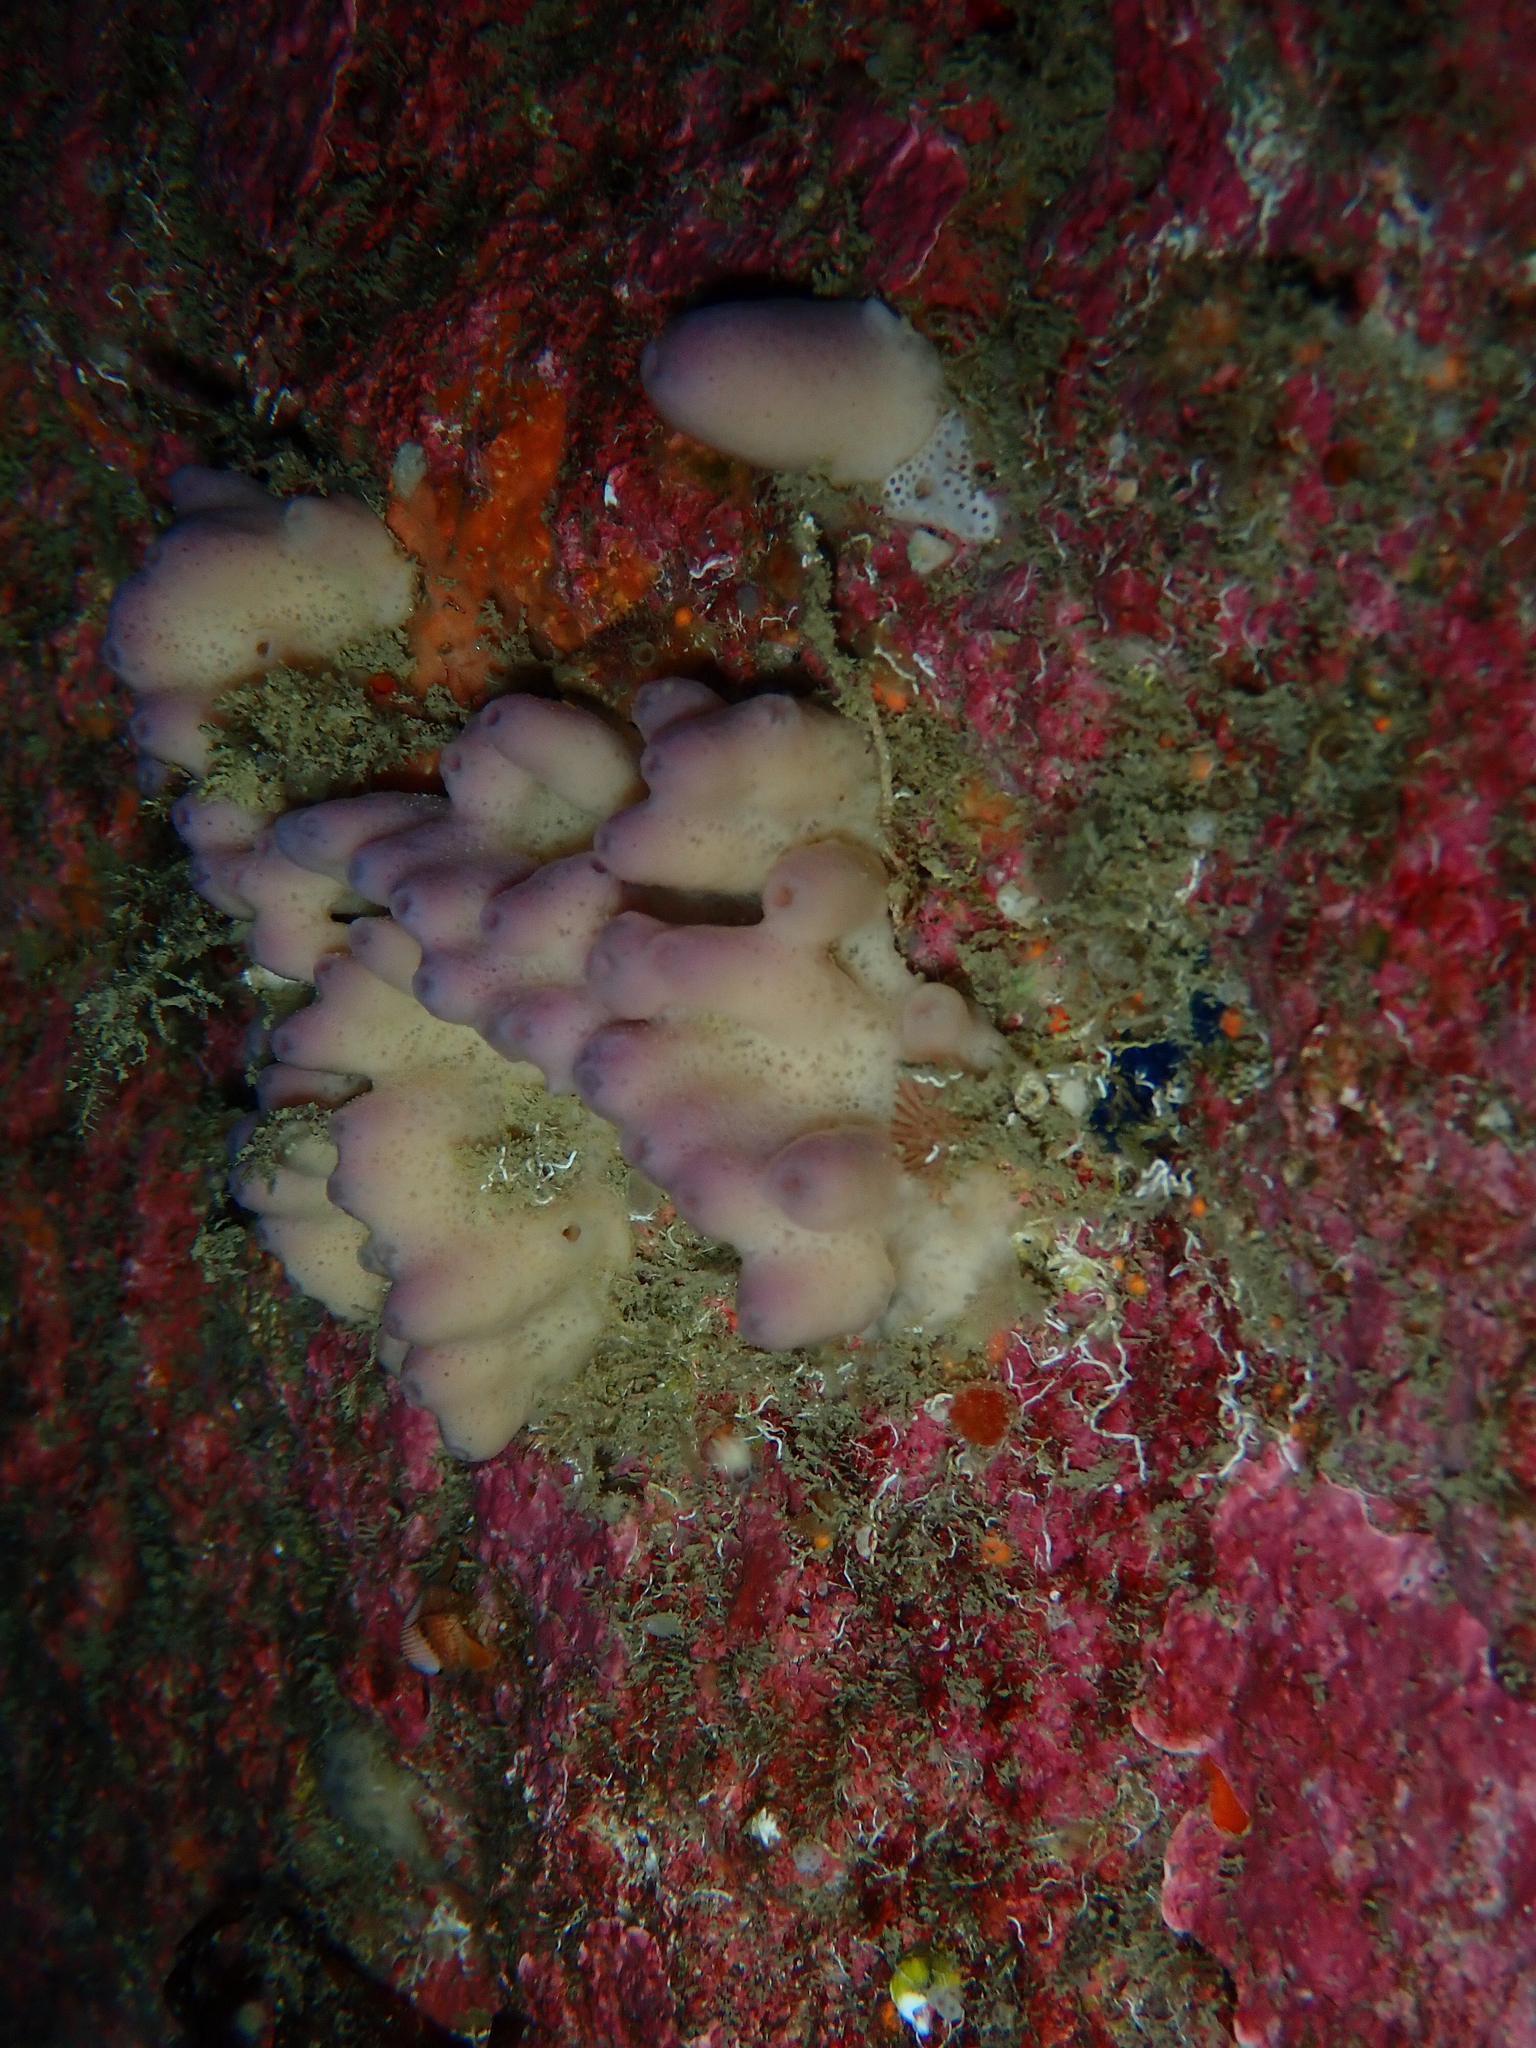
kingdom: Animalia
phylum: Porifera
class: Demospongiae
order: Haplosclerida
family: Chalinidae
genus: Haliclona
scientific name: Haliclona viscosa
